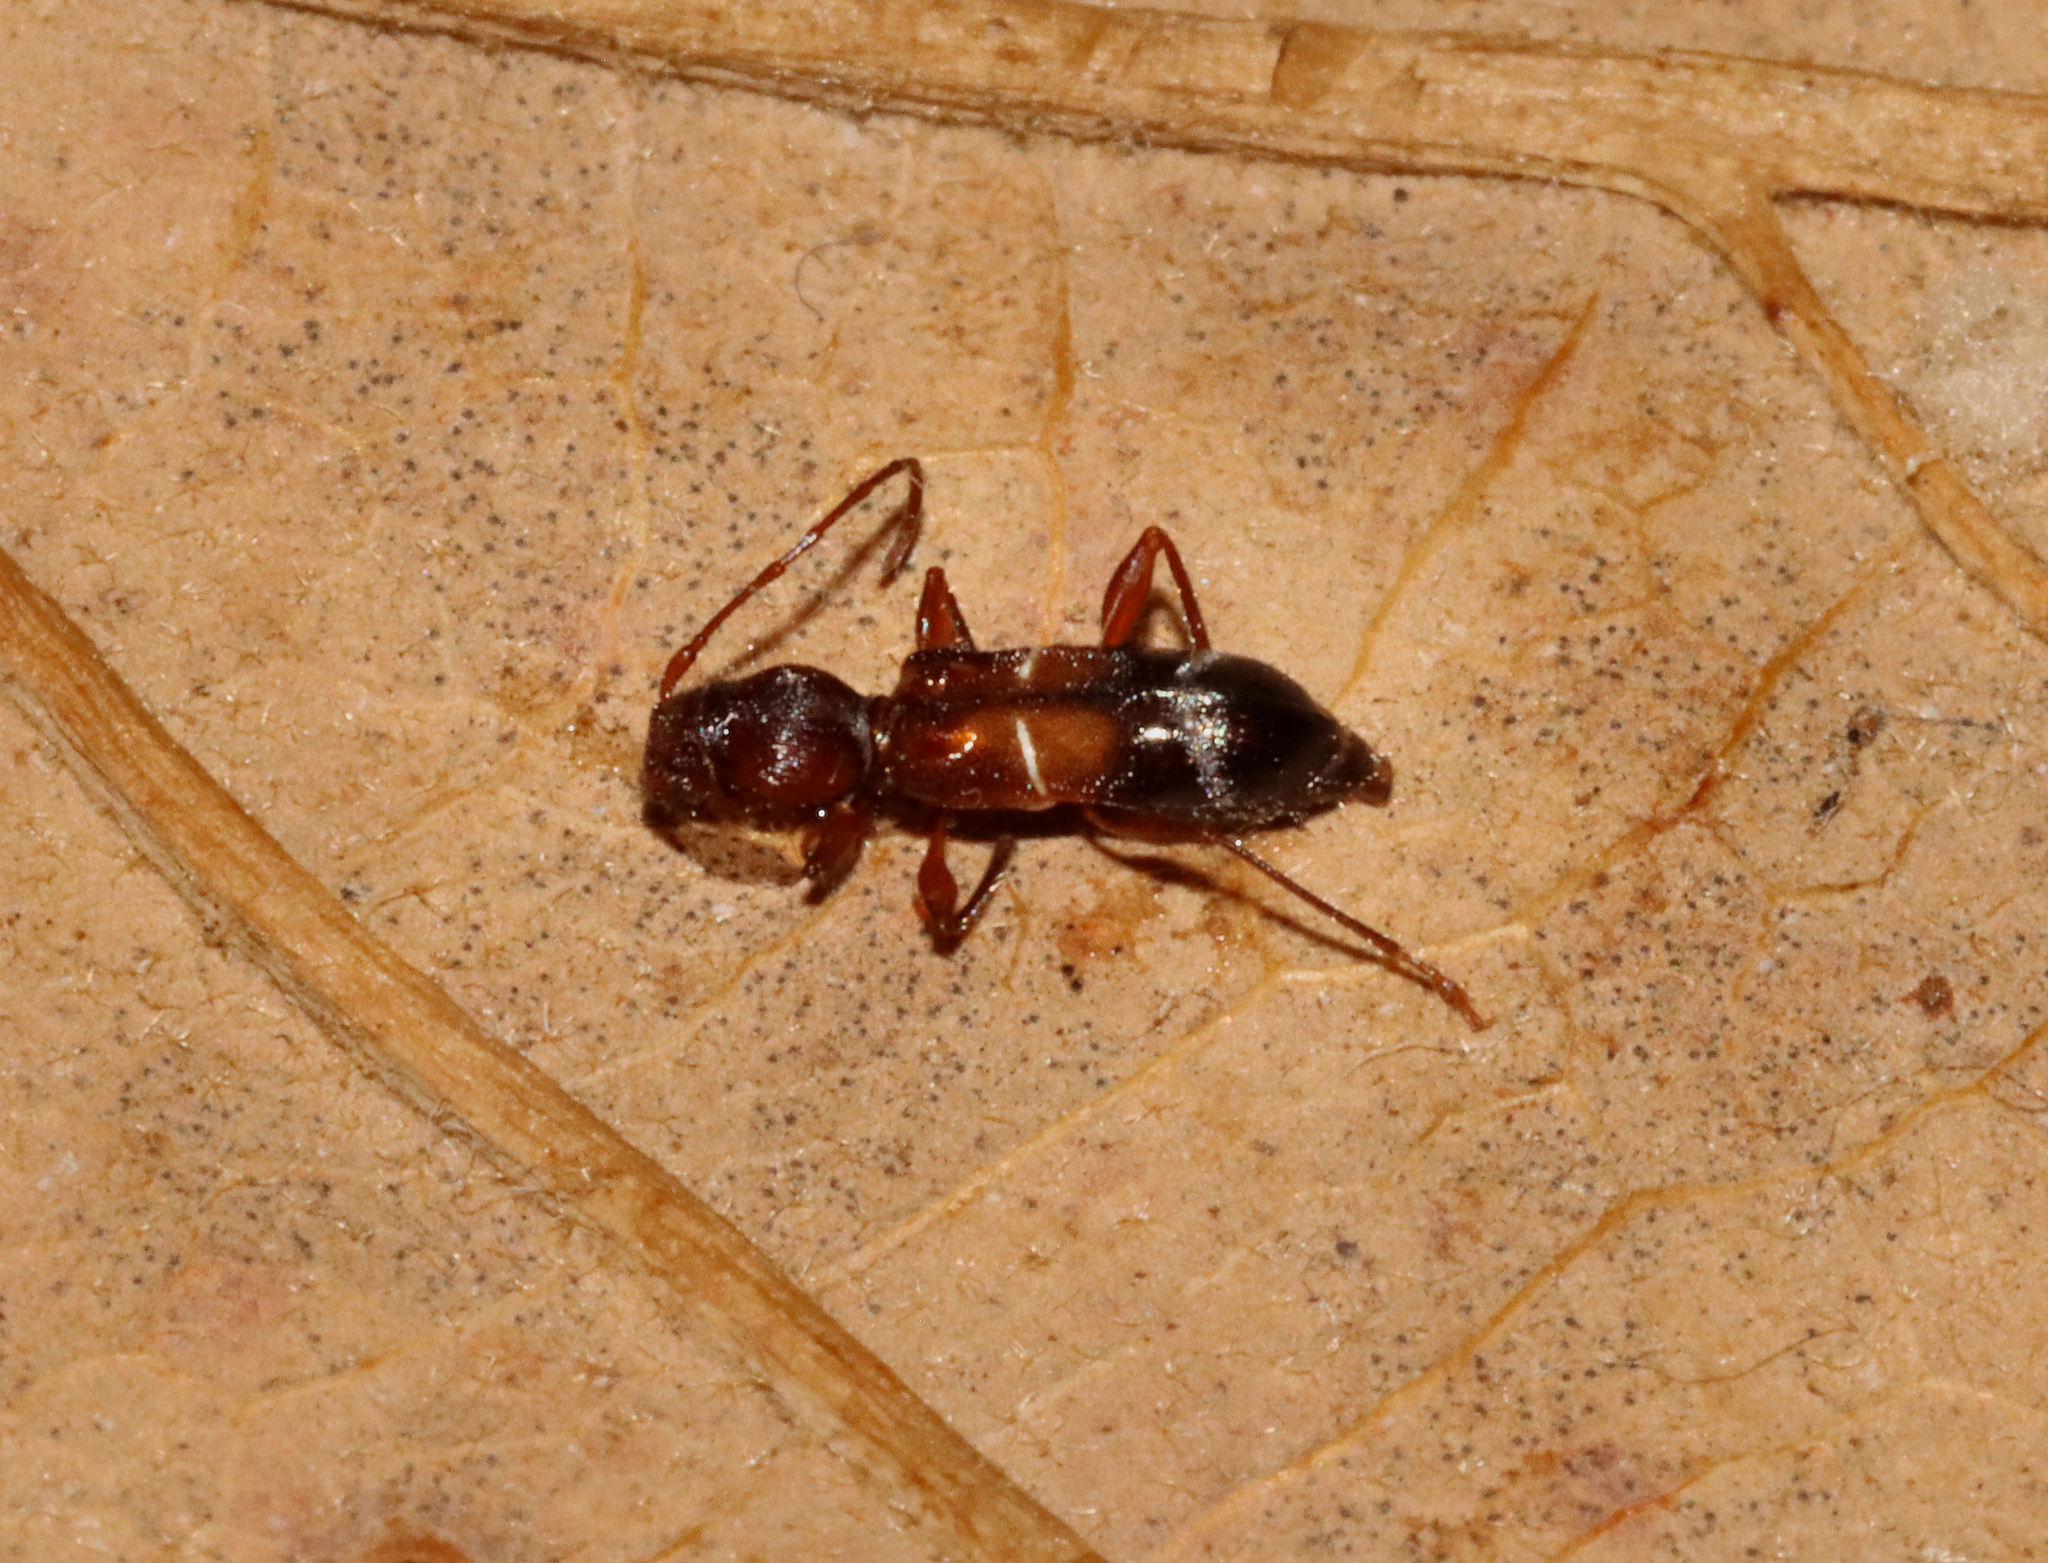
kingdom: Animalia
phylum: Arthropoda
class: Insecta
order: Coleoptera
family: Cerambycidae
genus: Euderces
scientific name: Euderces pini
